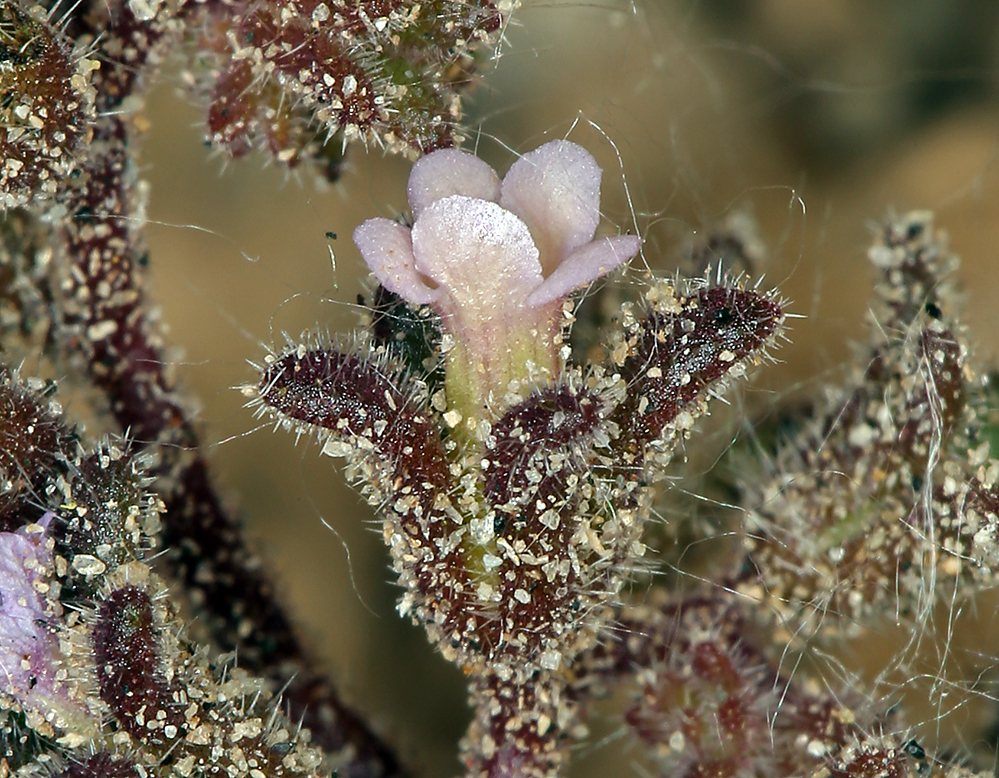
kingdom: Plantae
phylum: Tracheophyta
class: Magnoliopsida
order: Boraginales
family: Hydrophyllaceae
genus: Phacelia
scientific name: Phacelia saxicola
